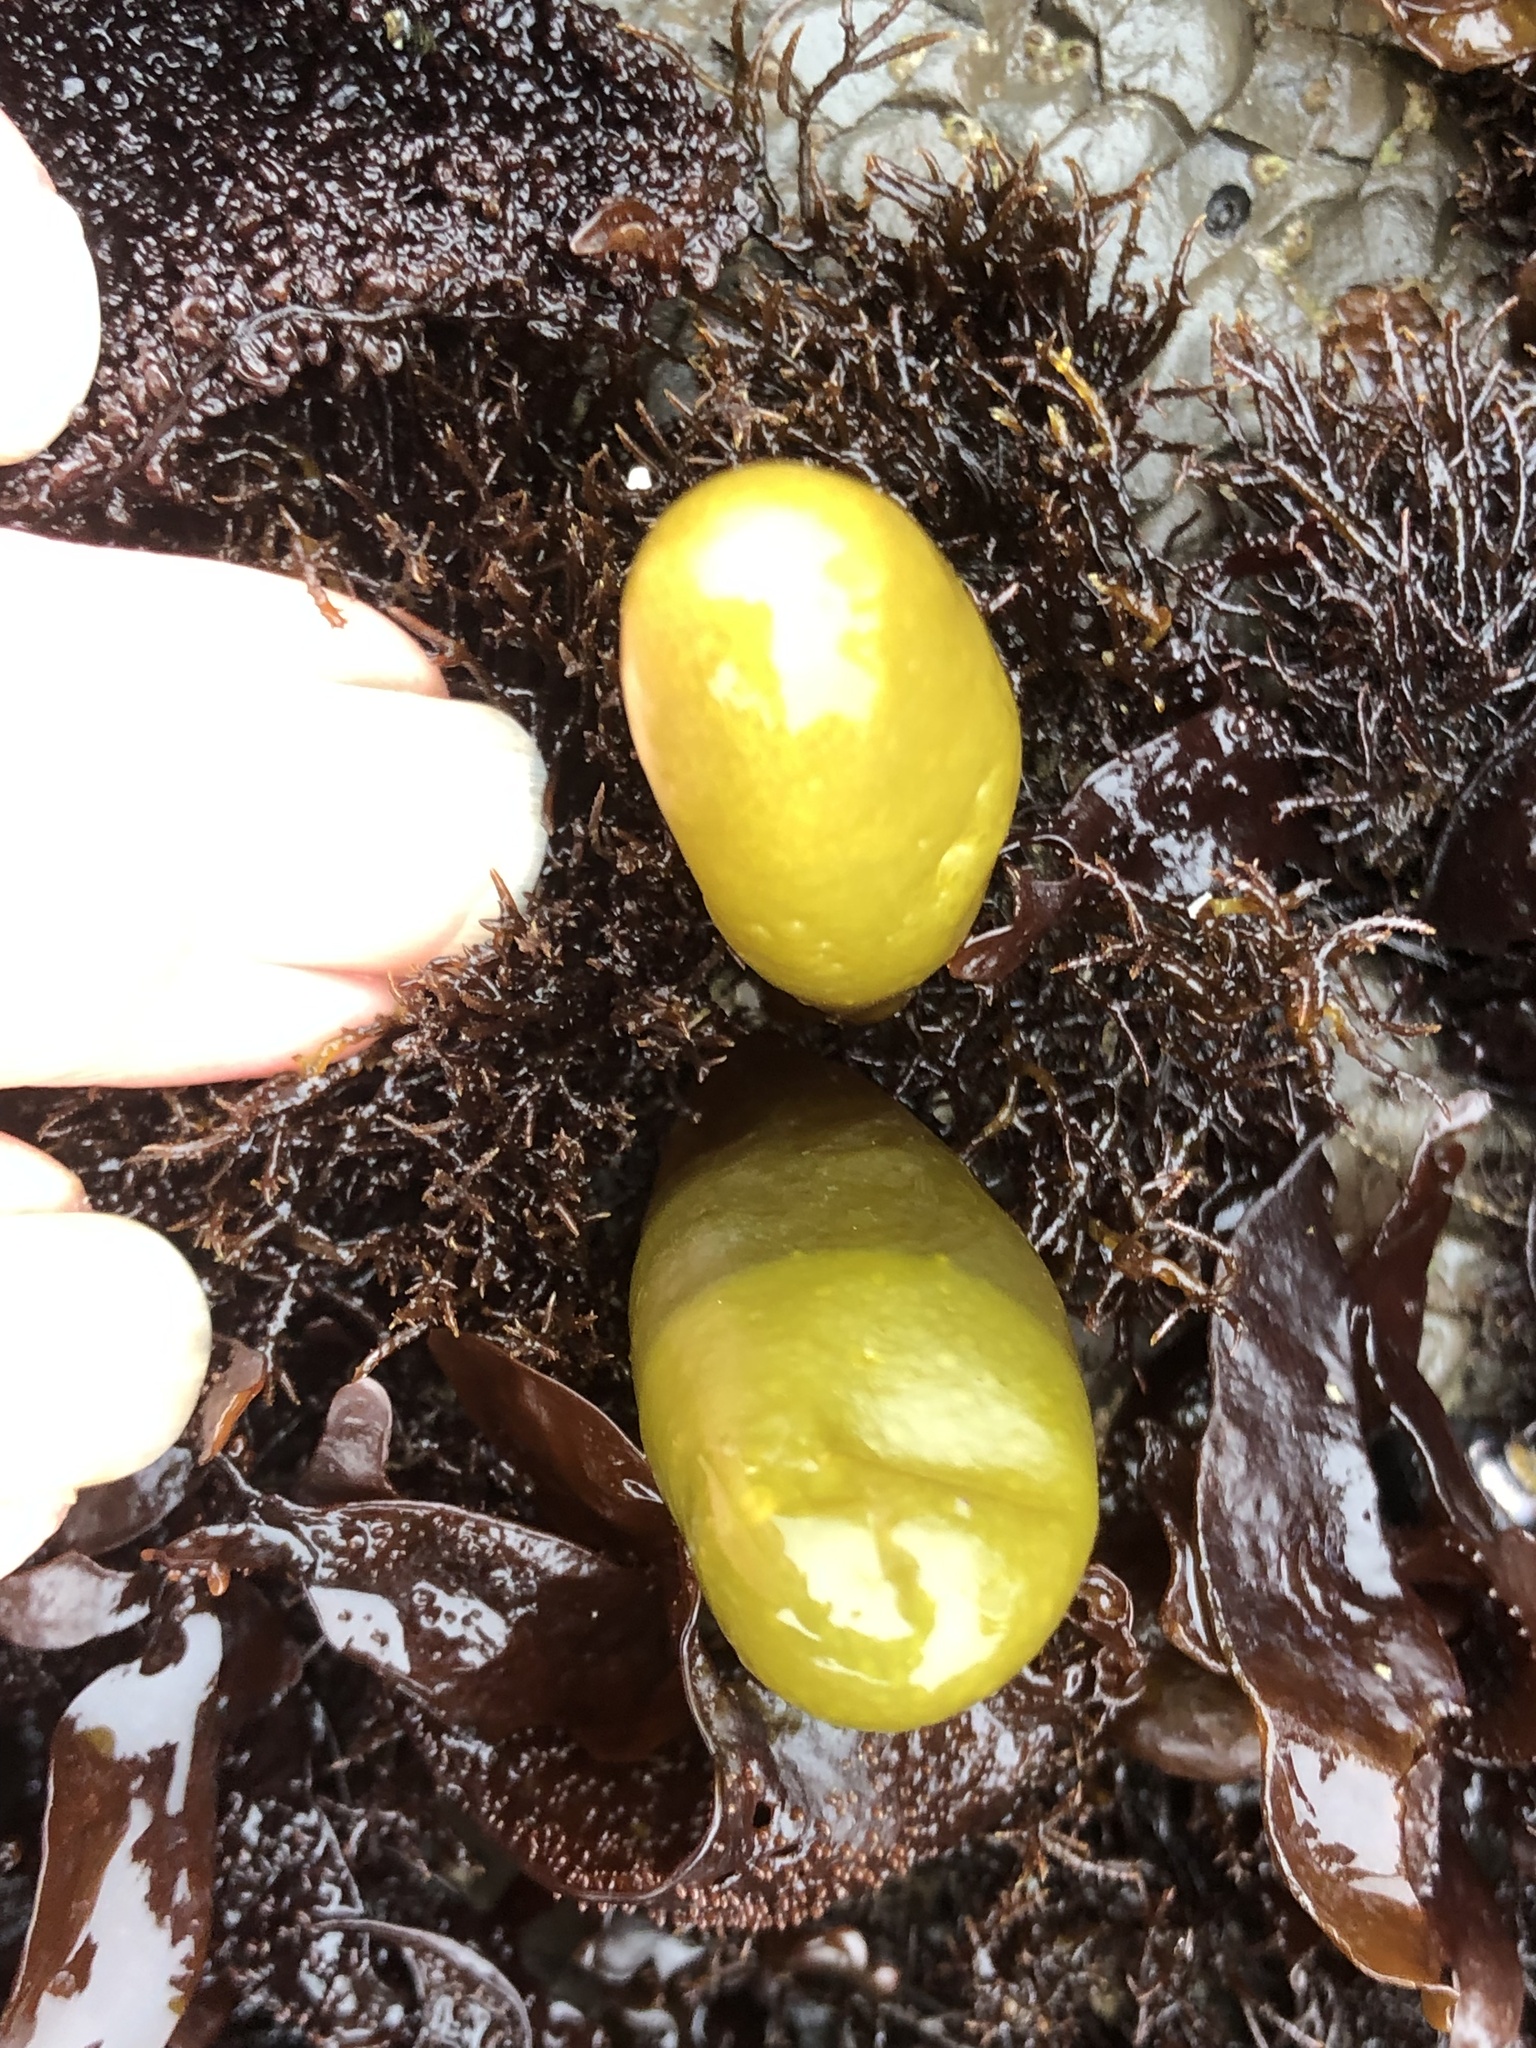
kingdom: Plantae
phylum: Rhodophyta
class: Florideophyceae
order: Palmariales
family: Palmariaceae
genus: Halosaccion
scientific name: Halosaccion glandiforme
